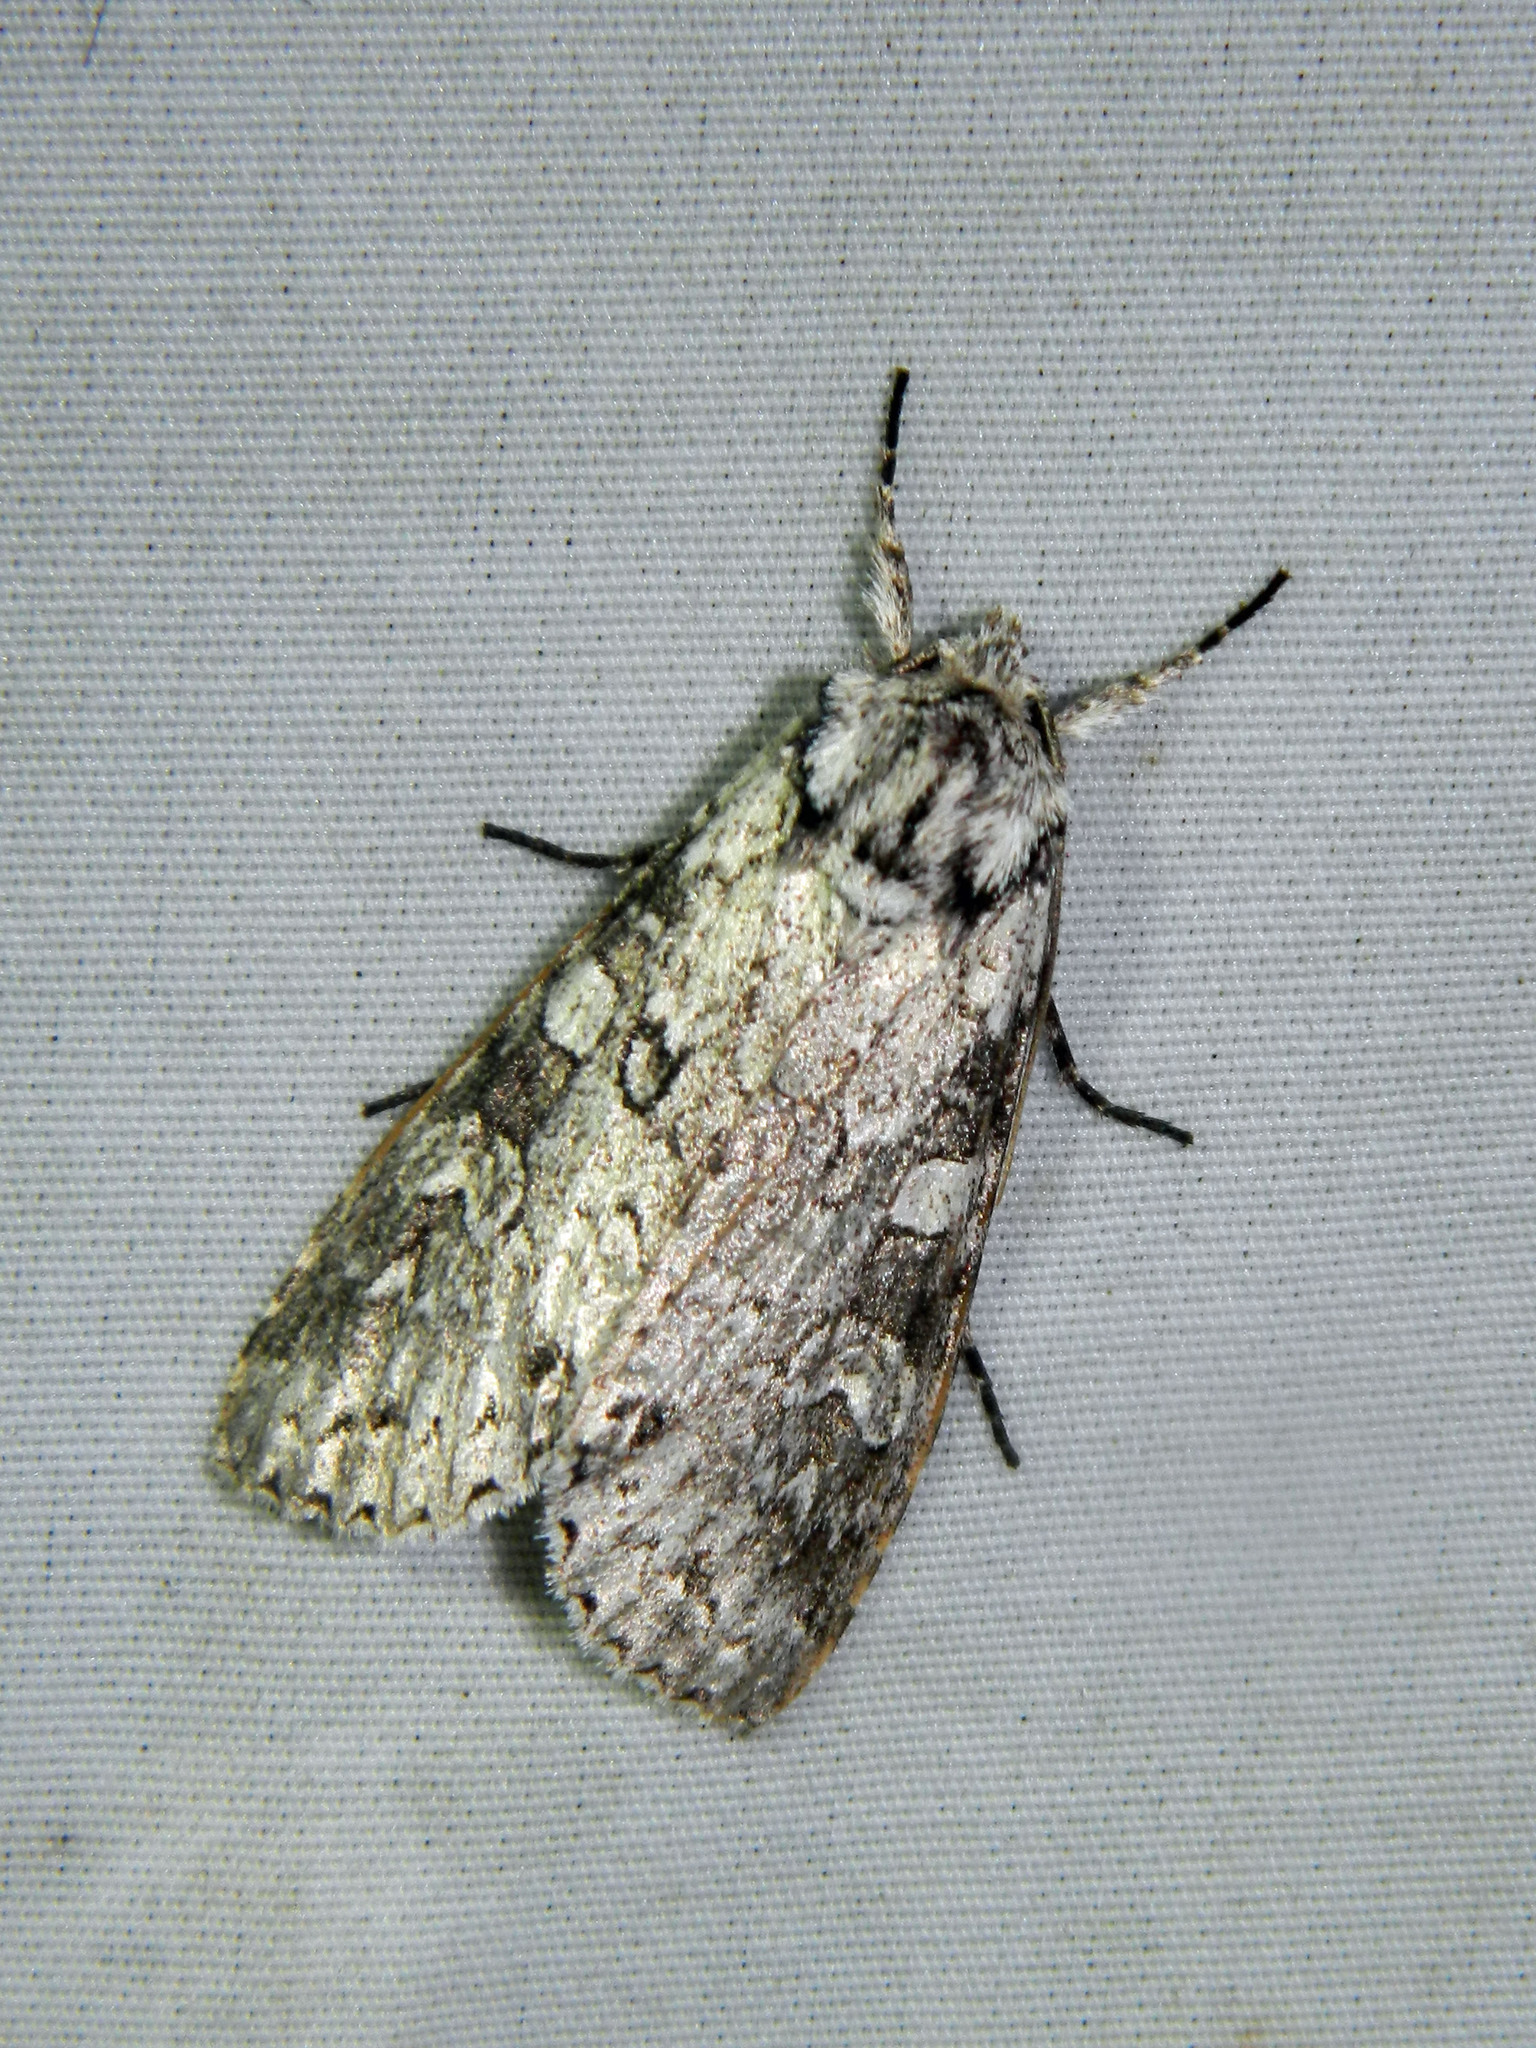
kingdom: Animalia
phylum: Arthropoda
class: Insecta
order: Lepidoptera
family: Noctuidae
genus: Polia
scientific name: Polia nimbosa
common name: Stormy arches
